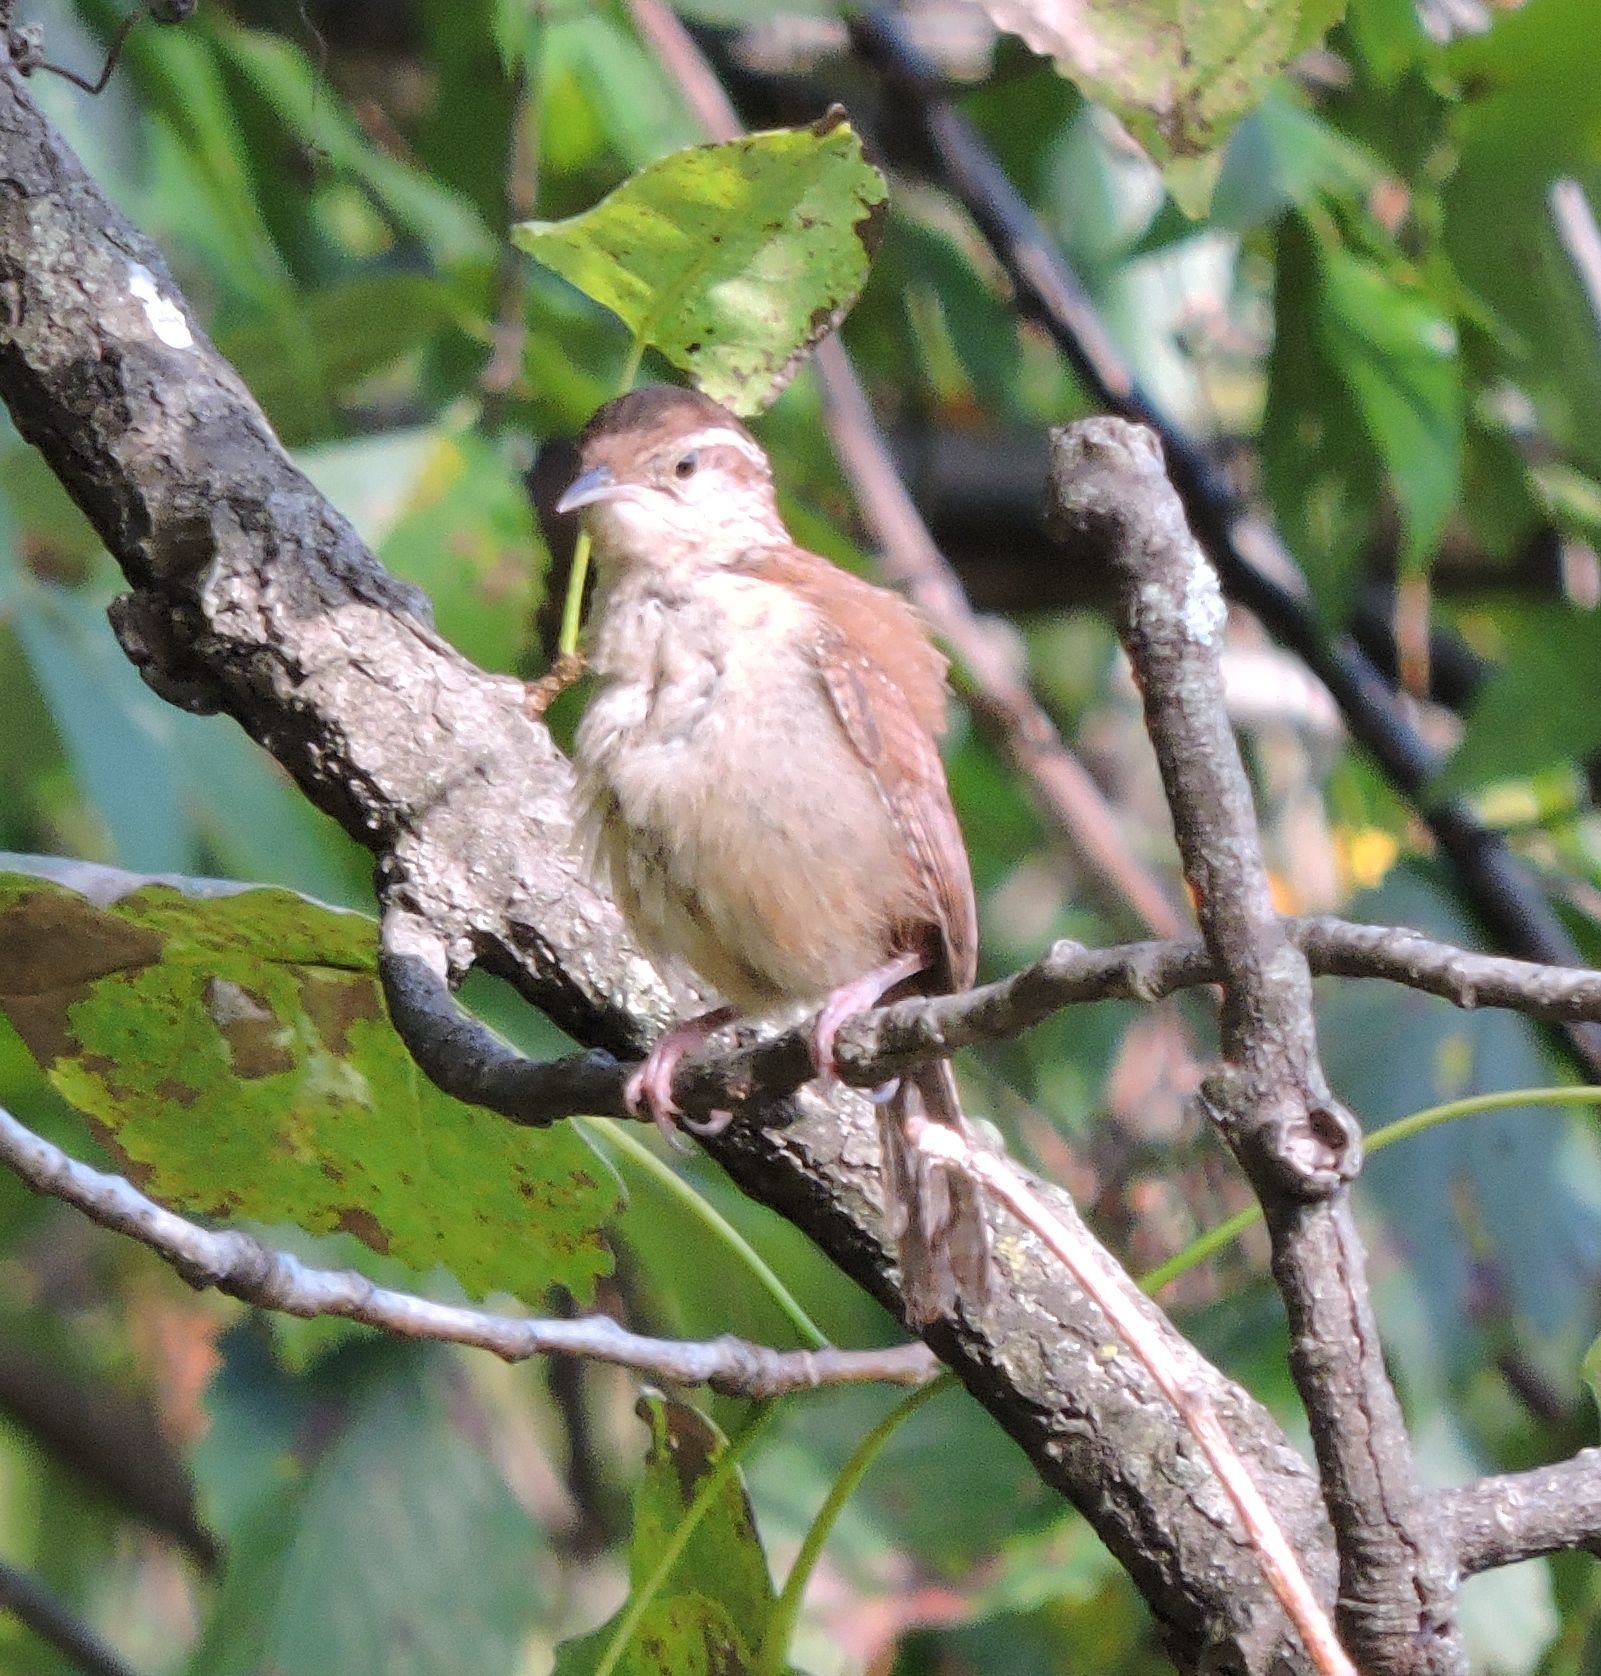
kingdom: Animalia
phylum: Chordata
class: Aves
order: Passeriformes
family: Troglodytidae
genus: Thryothorus
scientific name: Thryothorus ludovicianus
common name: Carolina wren
